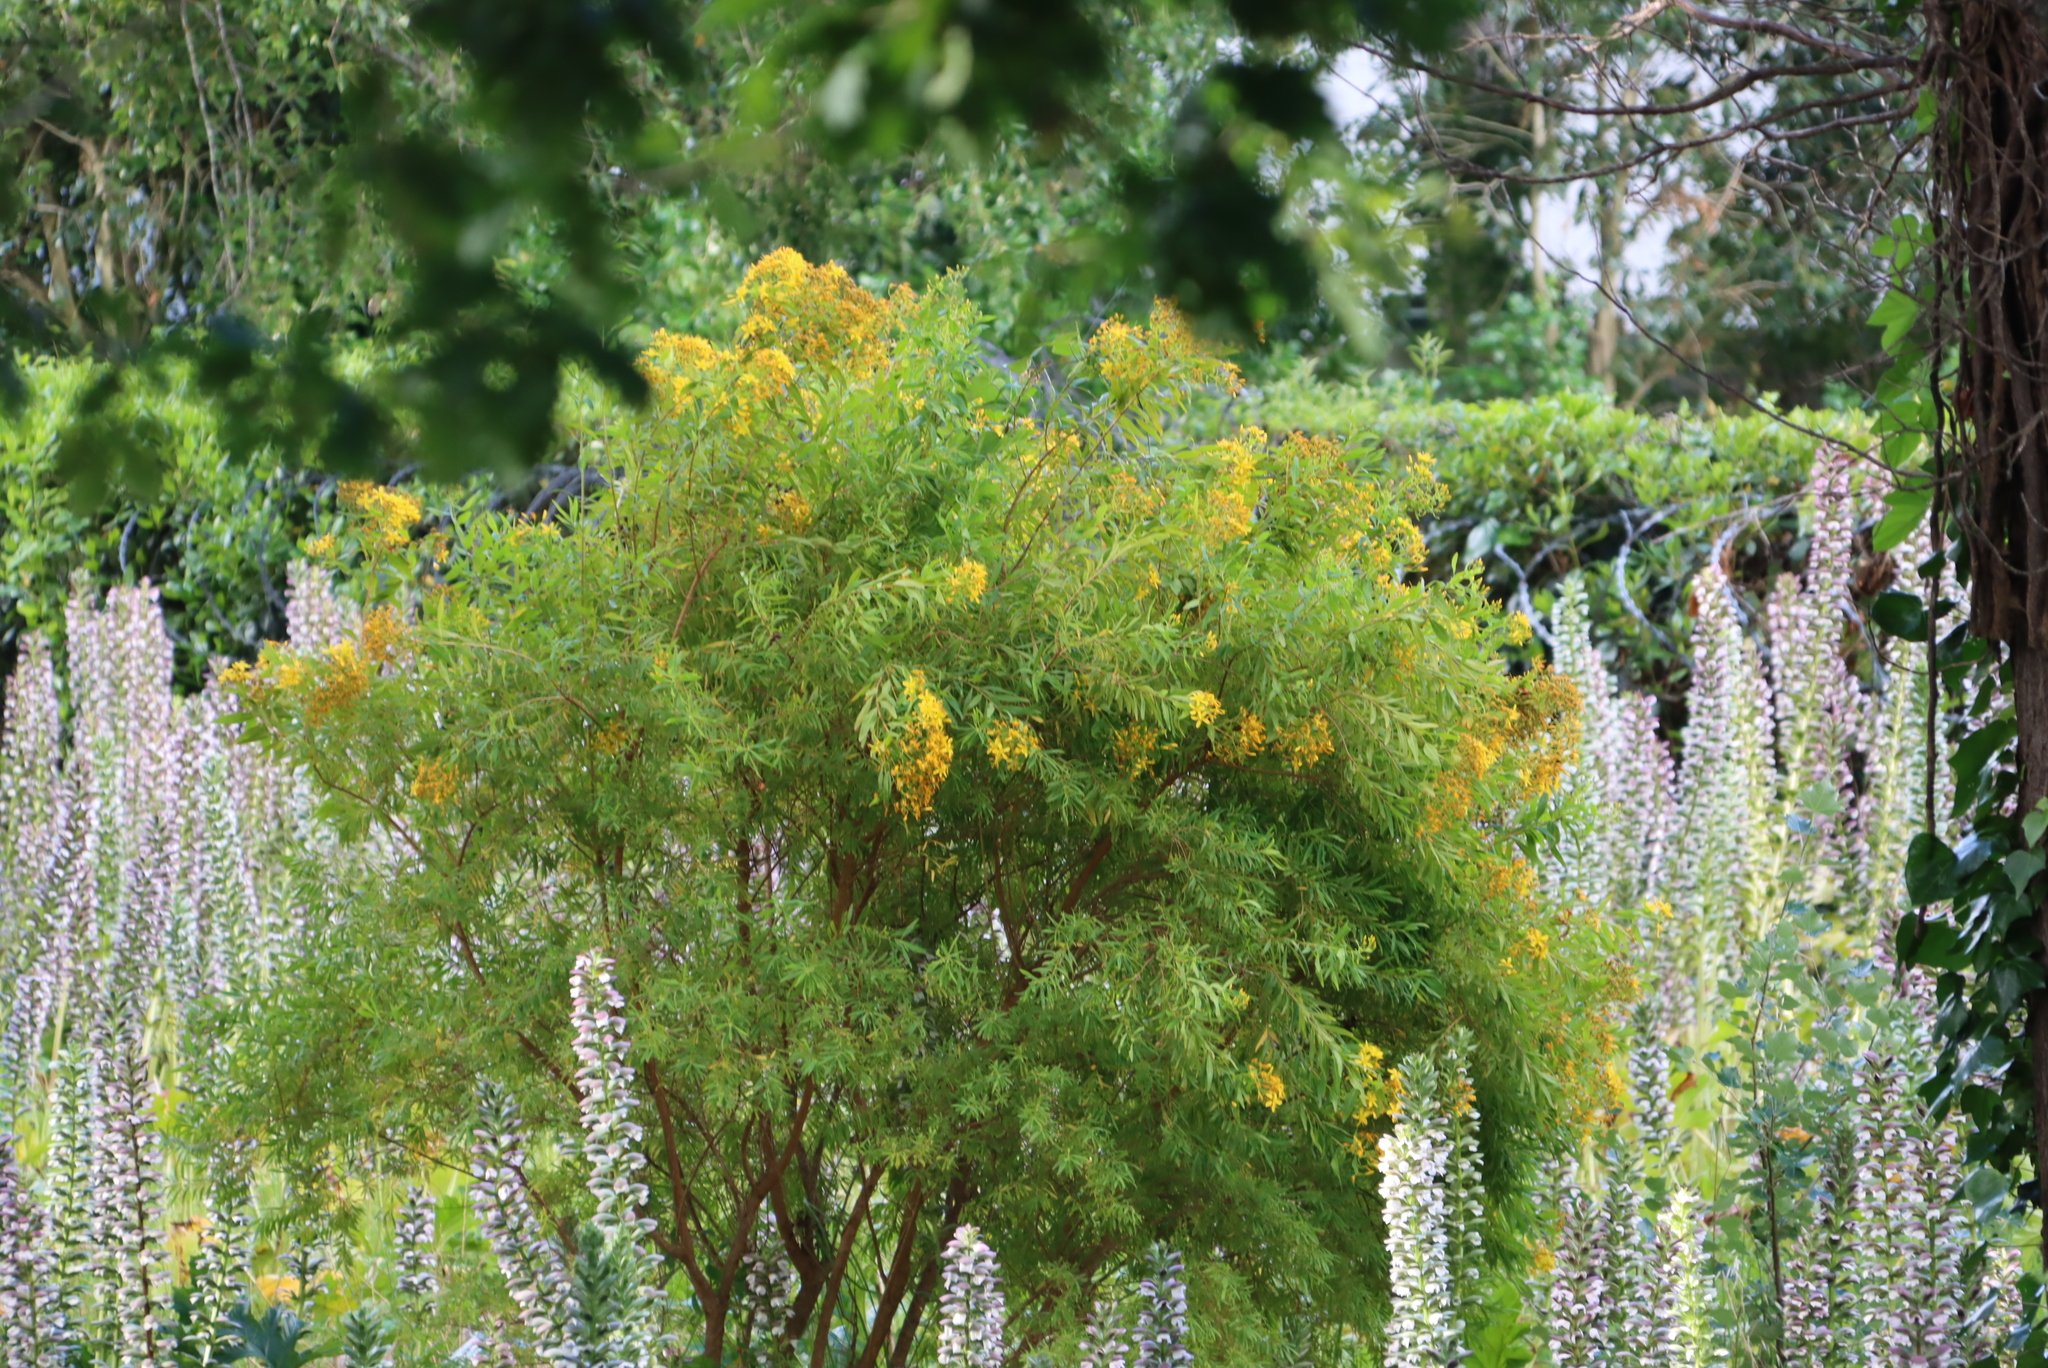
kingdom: Plantae
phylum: Tracheophyta
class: Magnoliopsida
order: Malpighiales
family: Hypericaceae
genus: Hypericum
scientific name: Hypericum canariense
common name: Canary island st. johnswort
